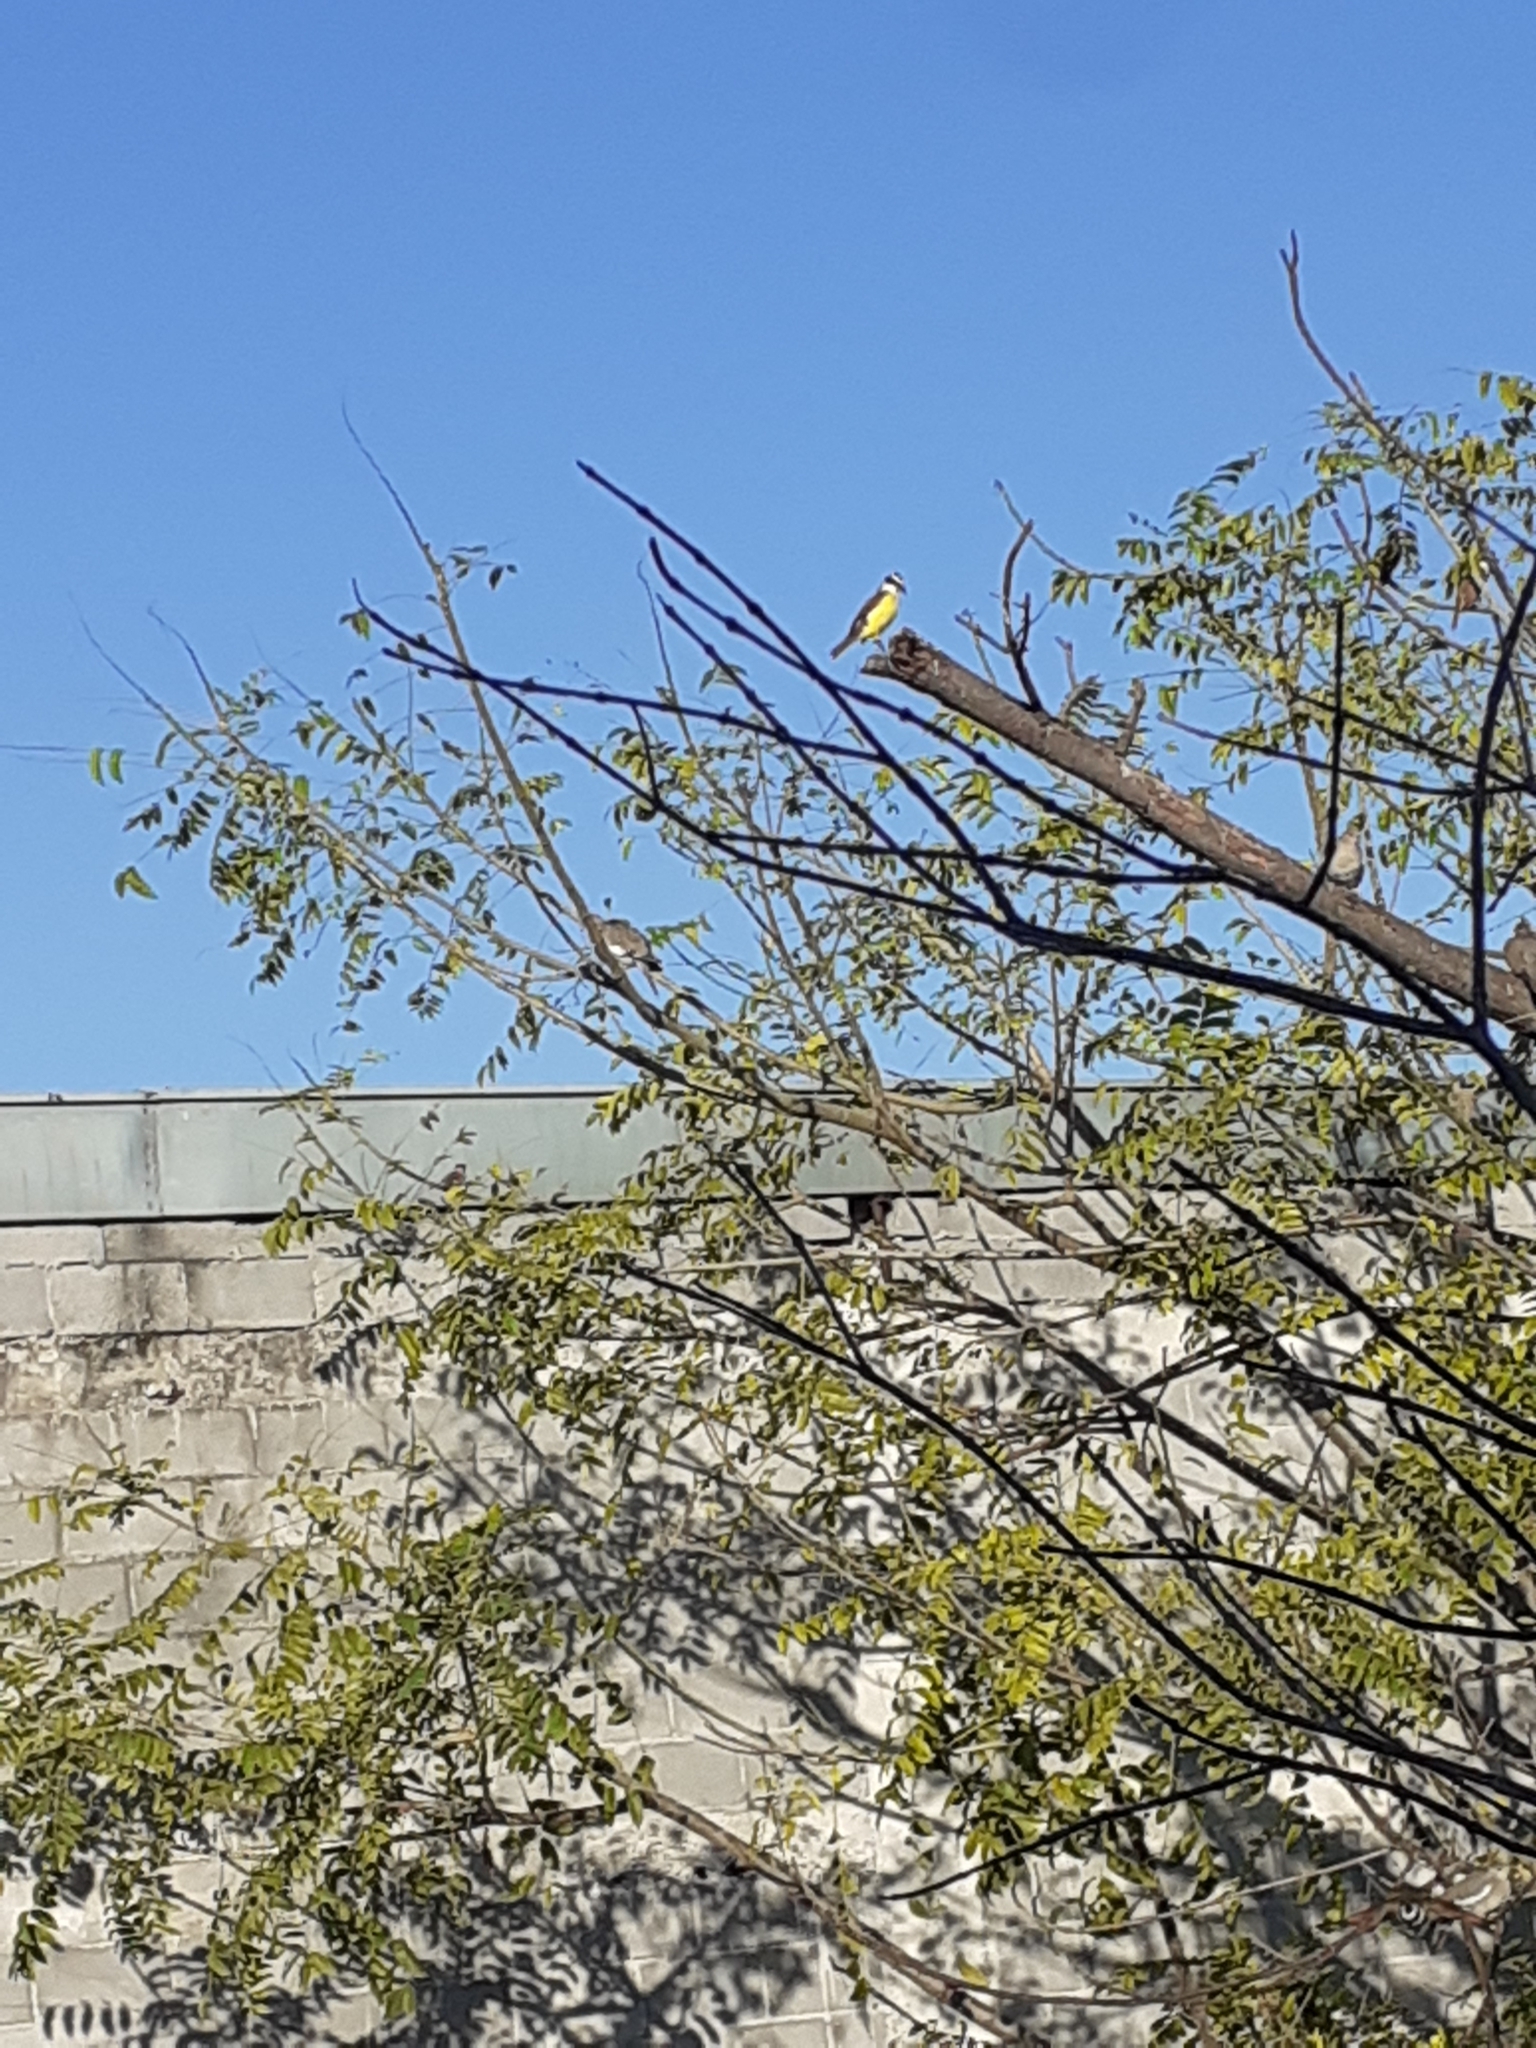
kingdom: Animalia
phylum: Chordata
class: Aves
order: Passeriformes
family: Tyrannidae
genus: Pitangus
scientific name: Pitangus sulphuratus
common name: Great kiskadee
